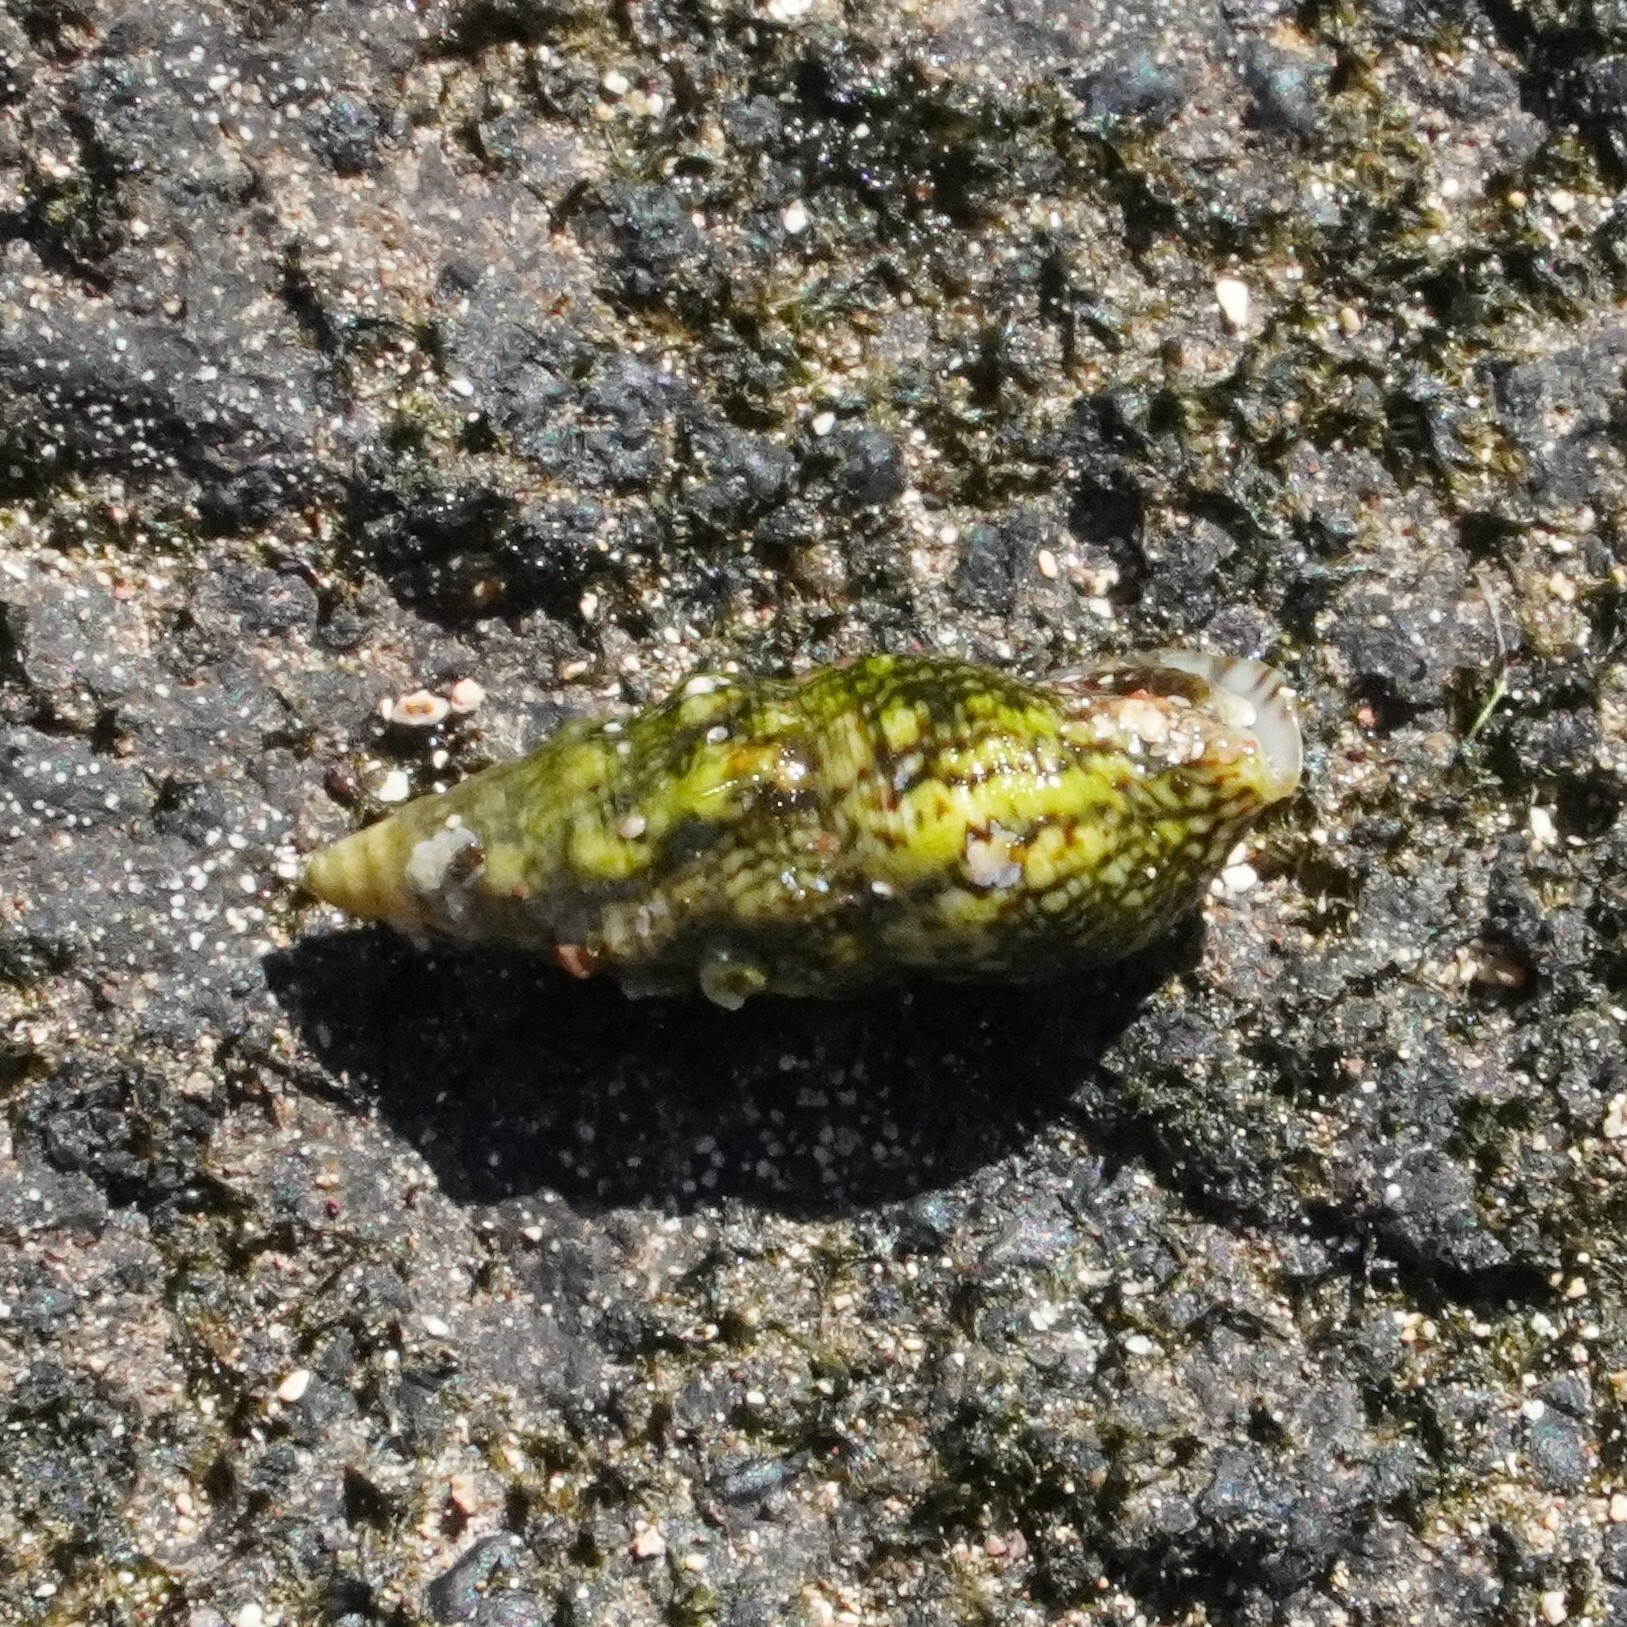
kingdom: Animalia
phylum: Mollusca
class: Gastropoda
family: Cerithiidae
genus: Cerithium
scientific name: Cerithium lividulum
